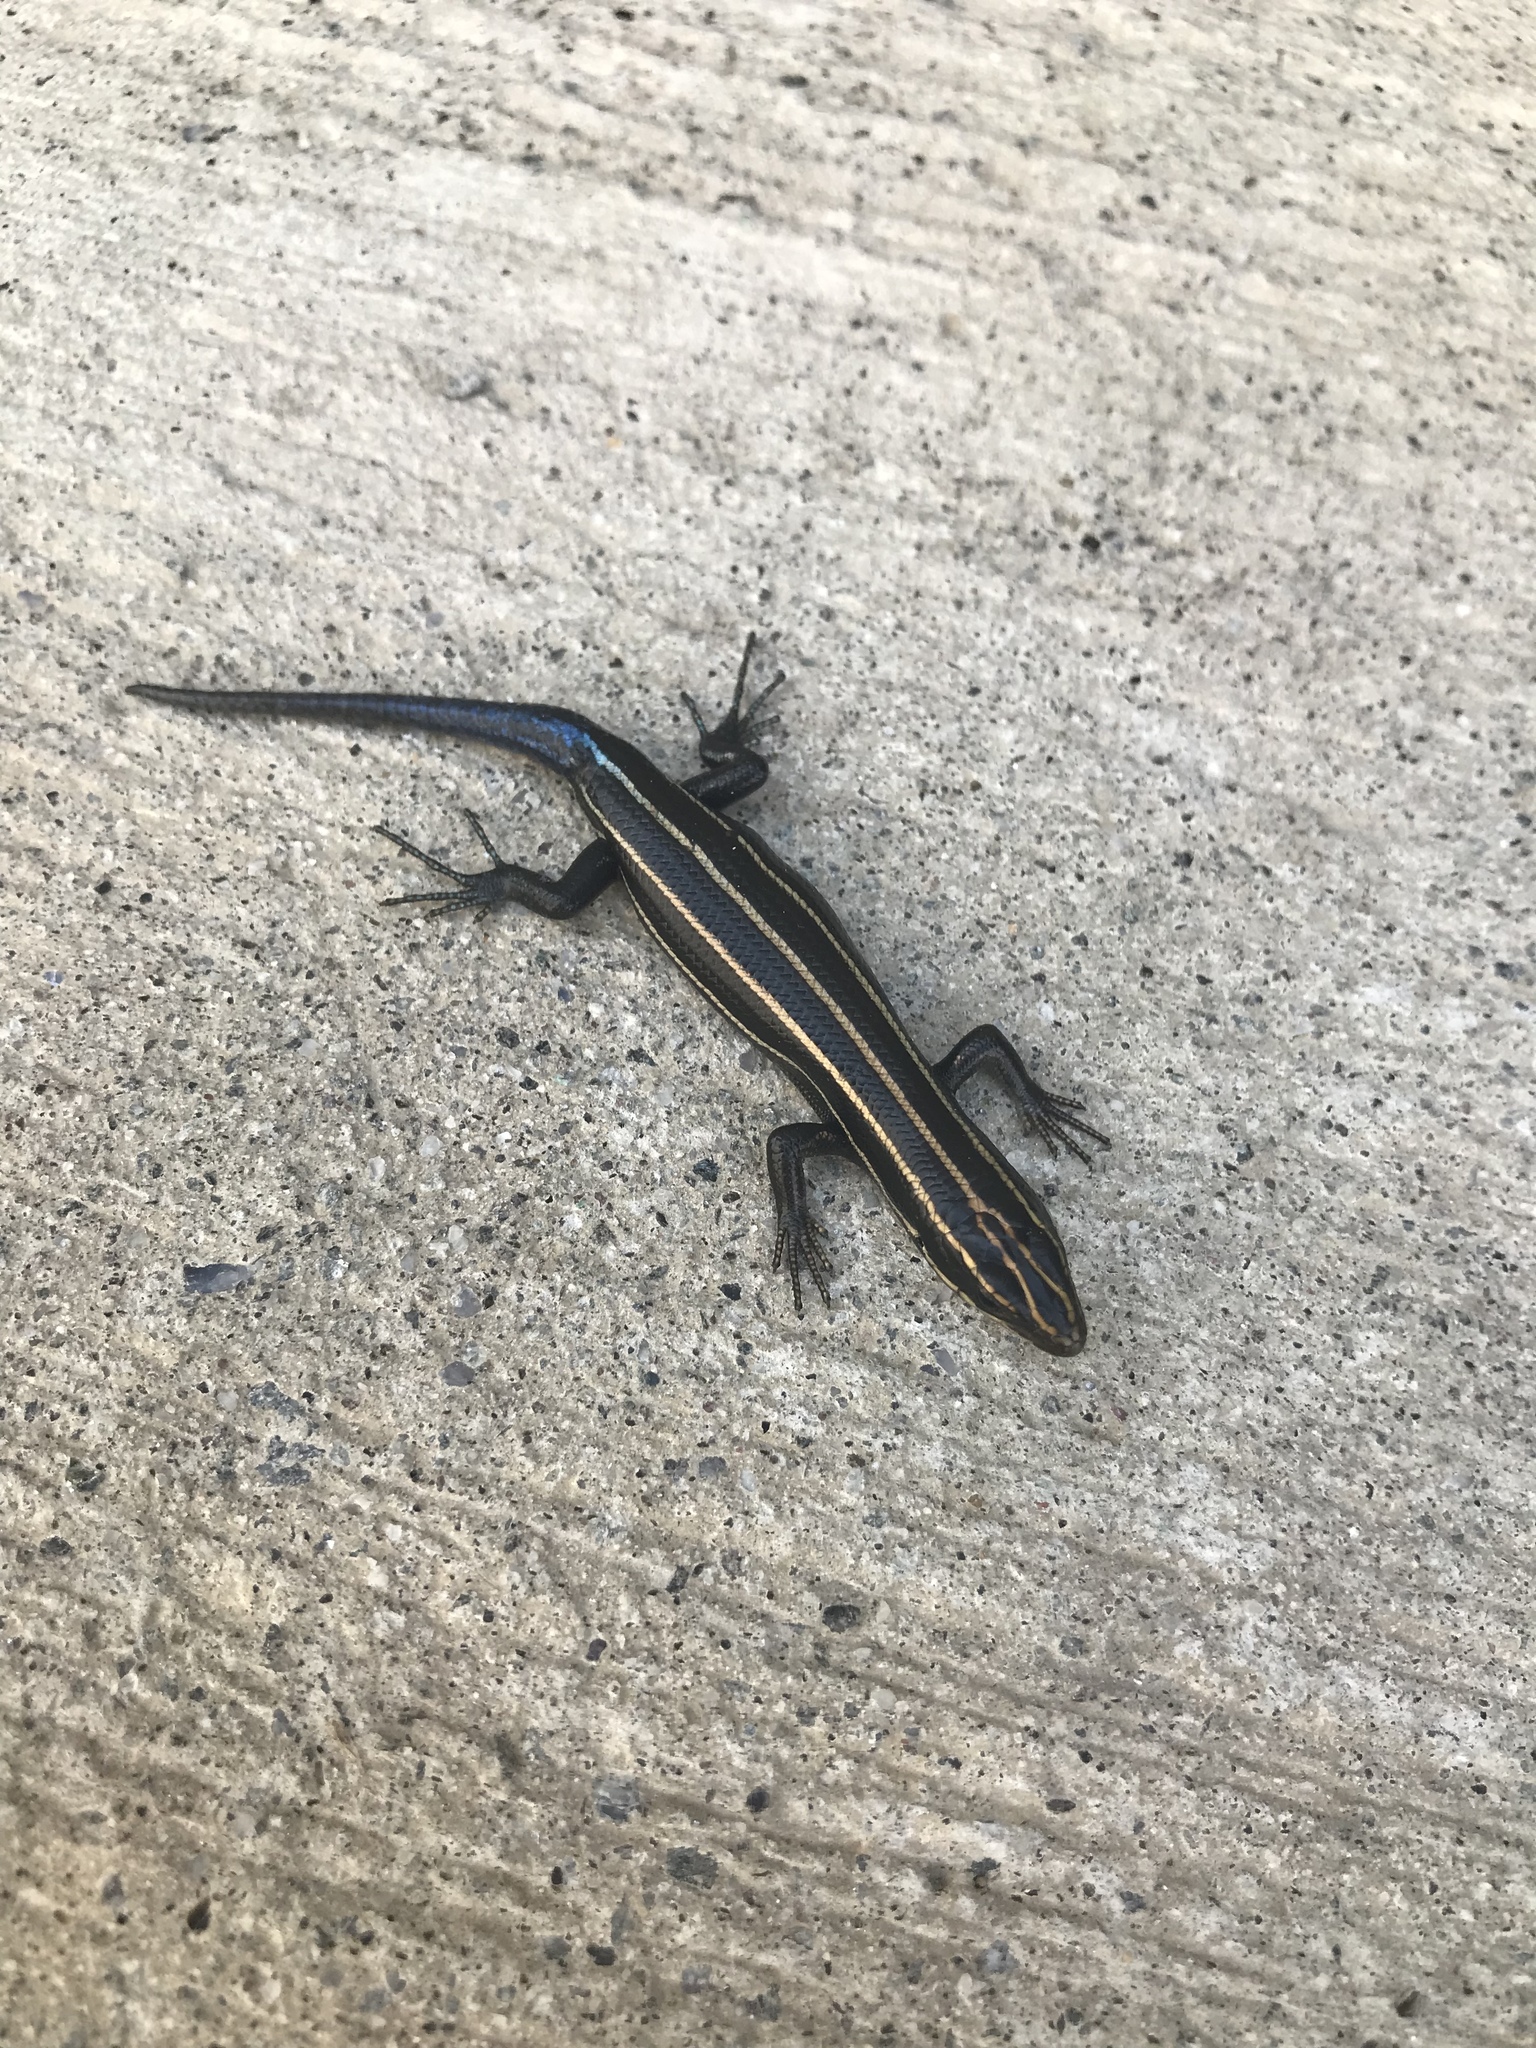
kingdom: Animalia
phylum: Chordata
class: Squamata
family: Scincidae
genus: Plestiodon
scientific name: Plestiodon fasciatus
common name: Five-lined skink
